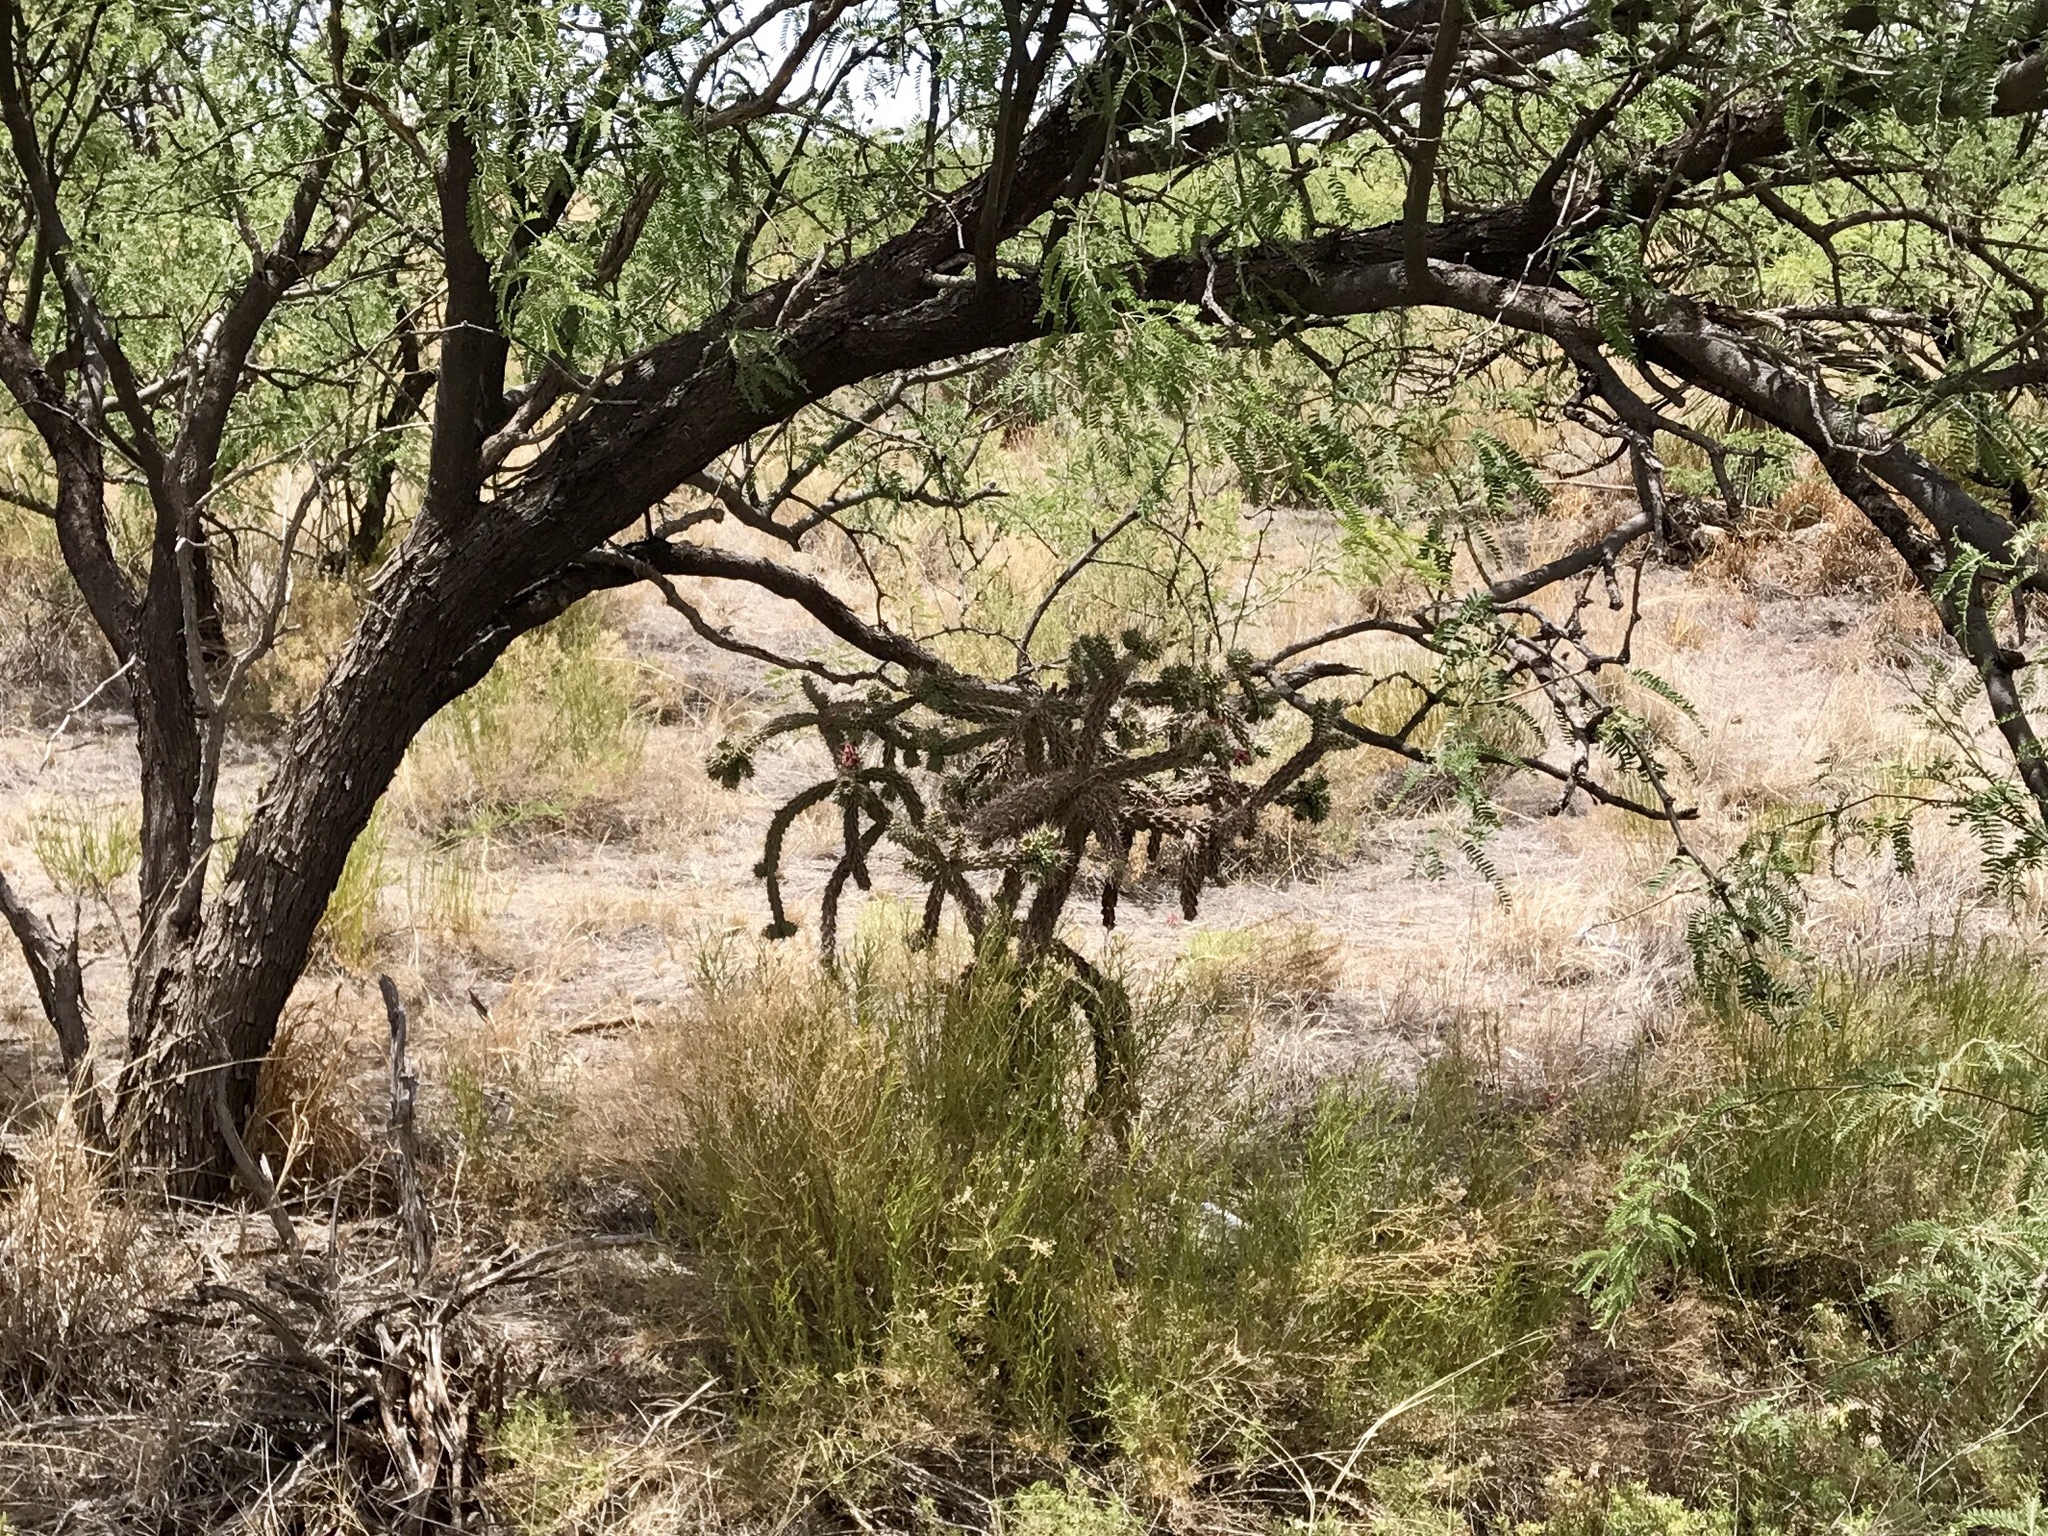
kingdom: Plantae
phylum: Tracheophyta
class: Magnoliopsida
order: Caryophyllales
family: Cactaceae
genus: Cylindropuntia
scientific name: Cylindropuntia imbricata
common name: Candelabrum cactus
